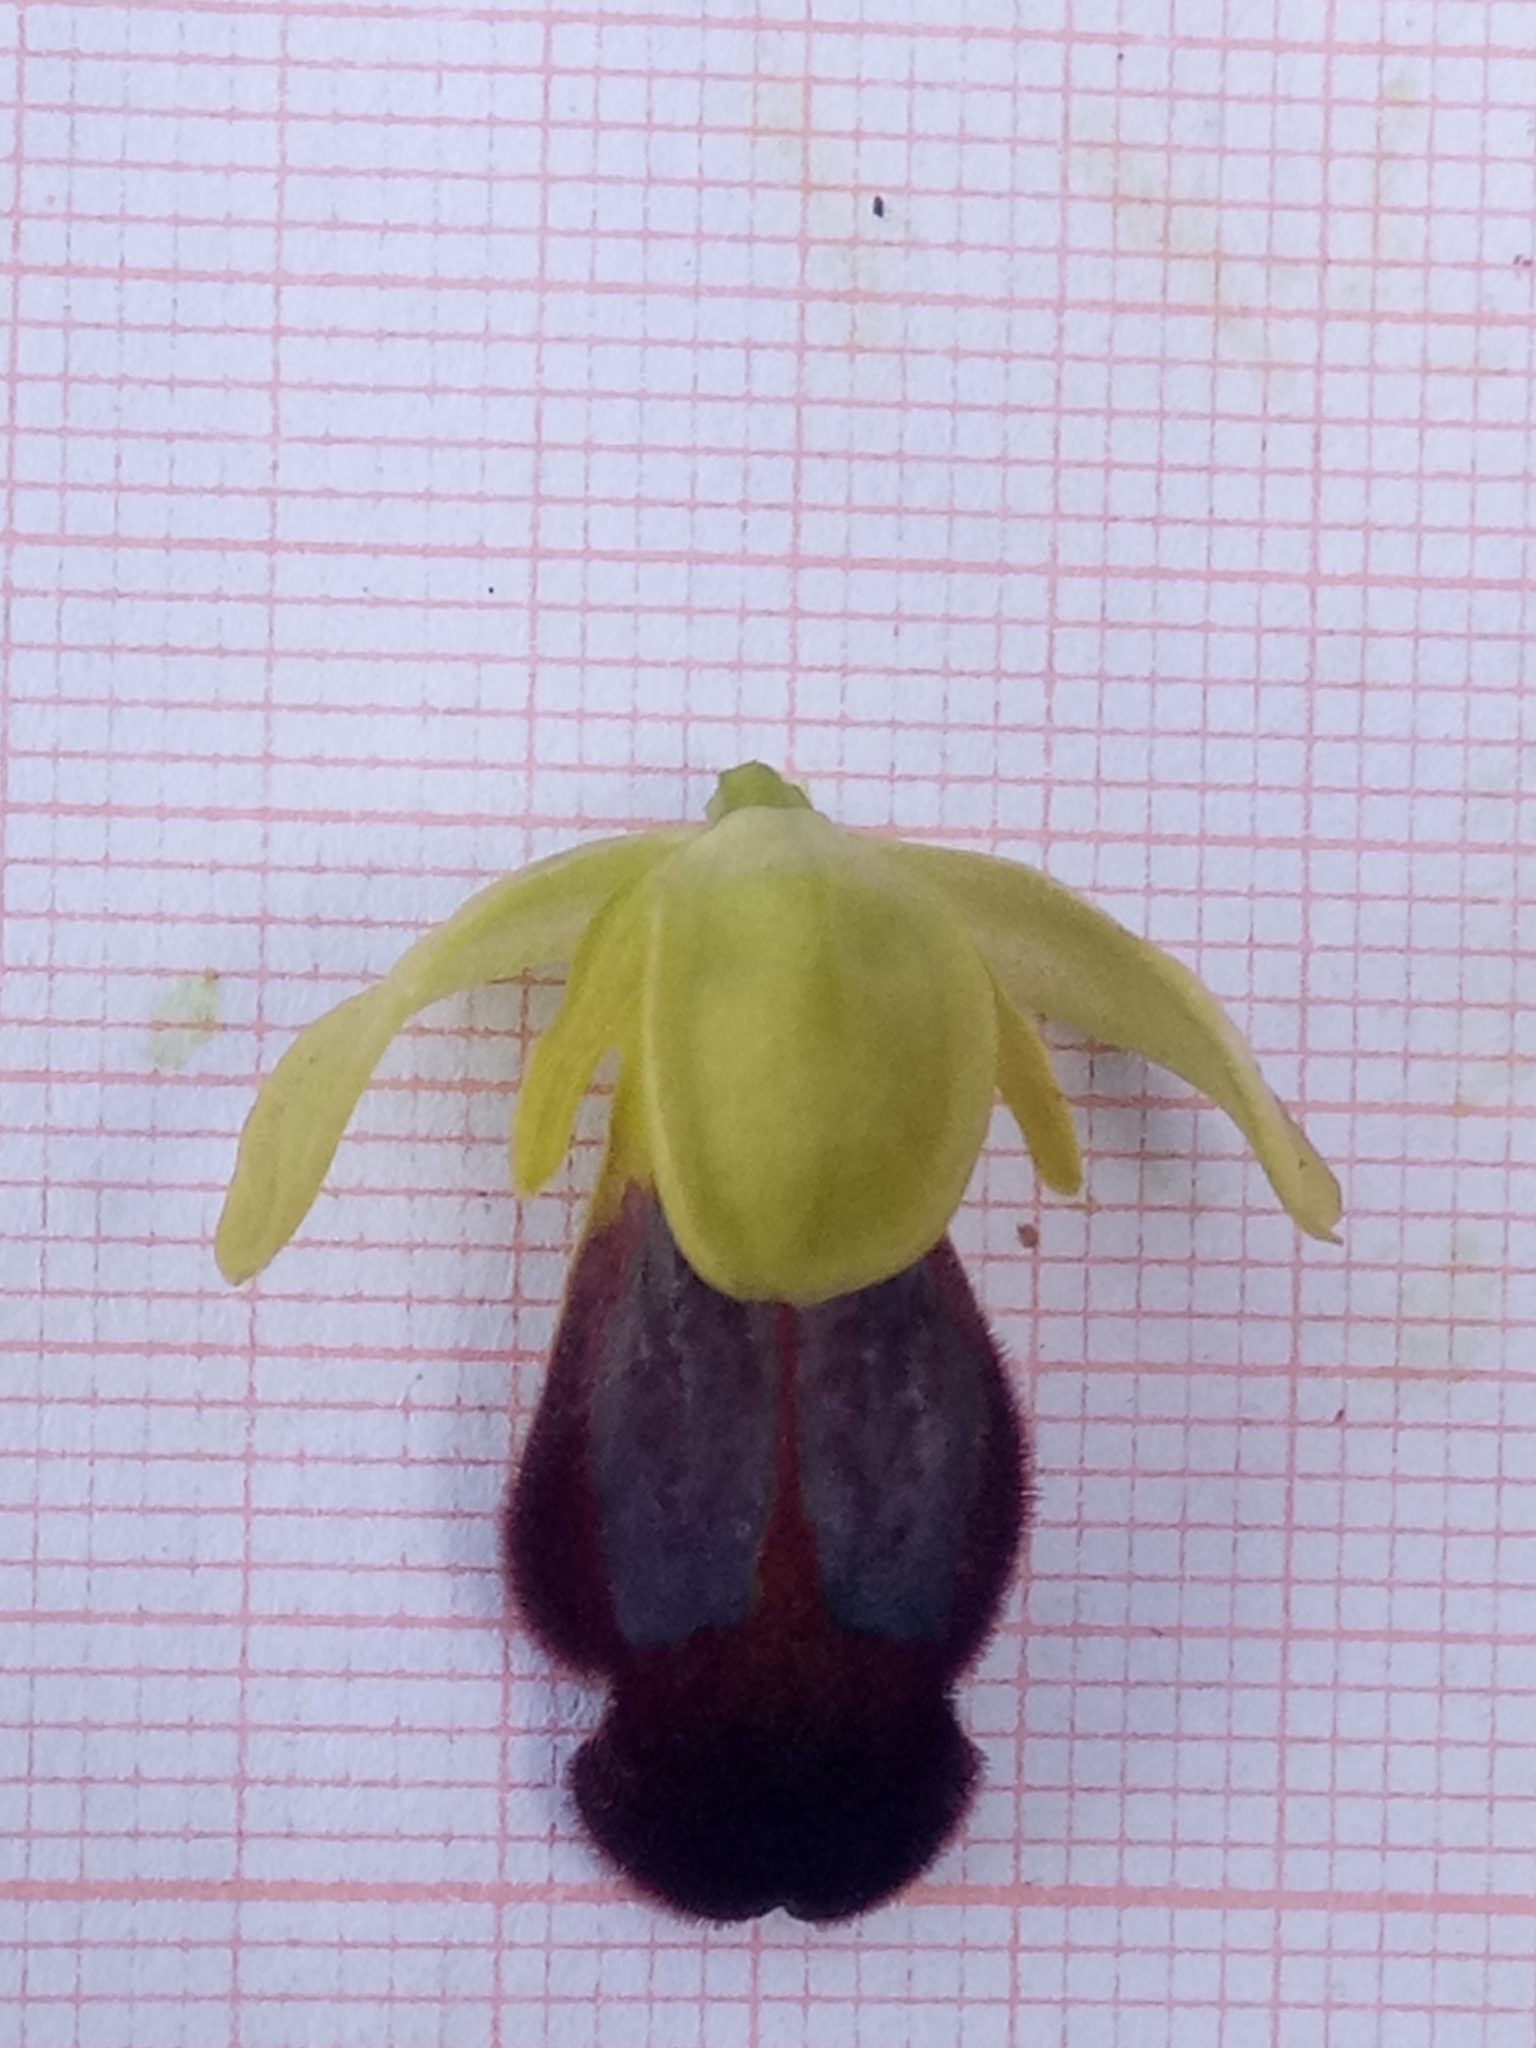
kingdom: Plantae
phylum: Tracheophyta
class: Liliopsida
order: Asparagales
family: Orchidaceae
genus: Ophrys
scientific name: Ophrys fusca
